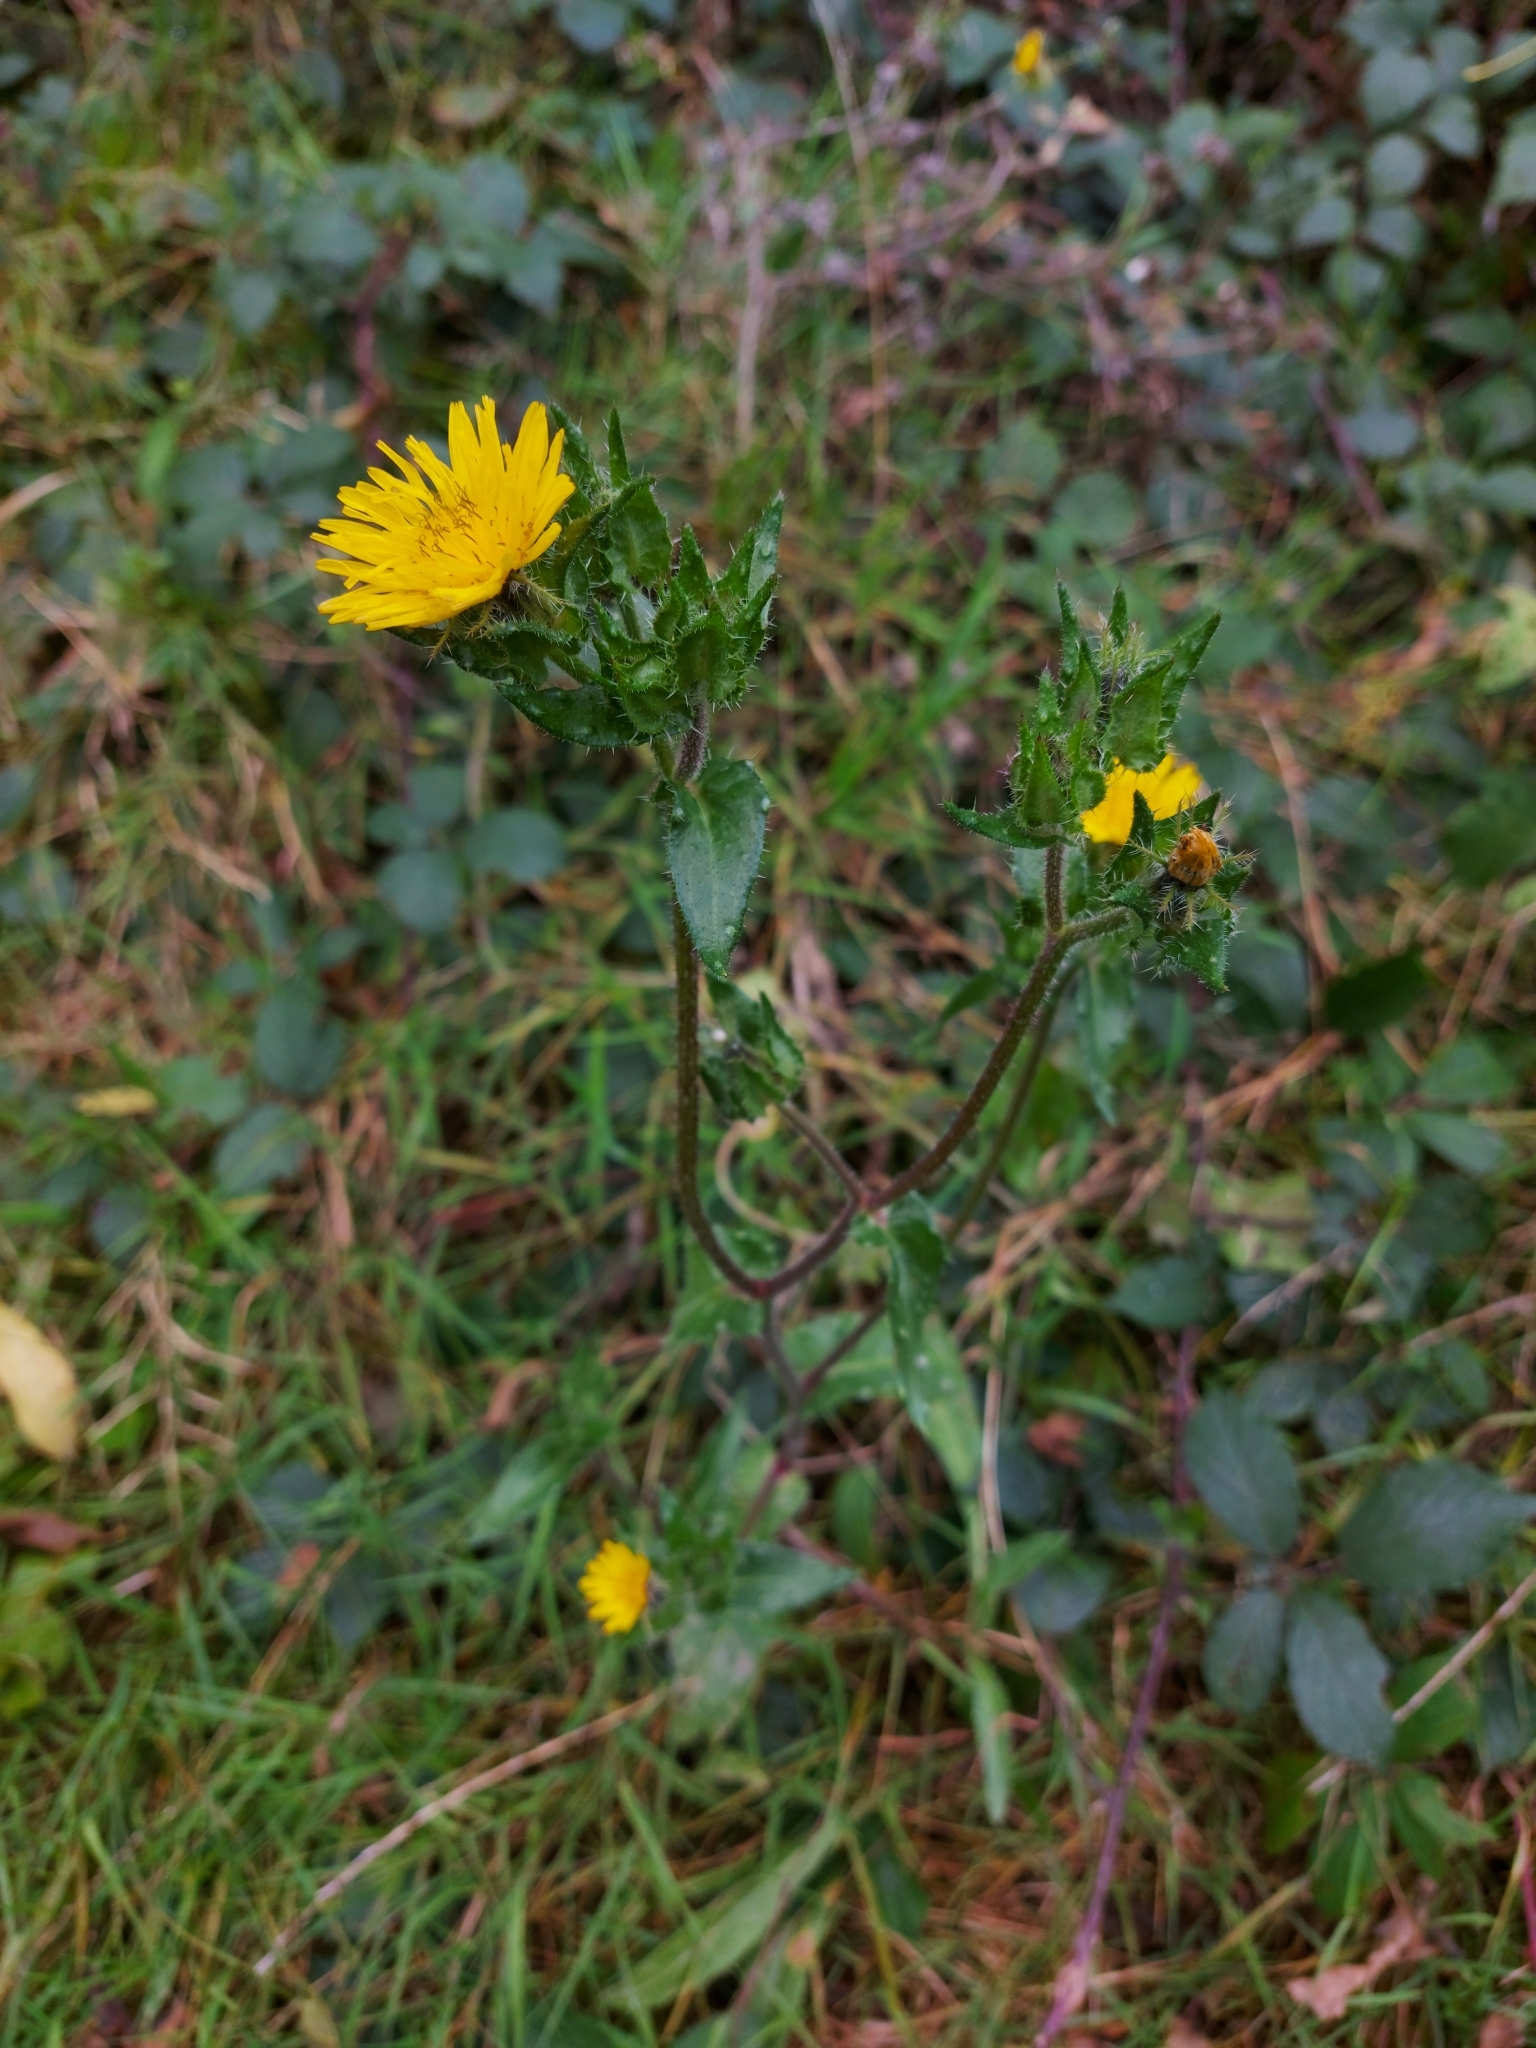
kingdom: Plantae
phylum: Tracheophyta
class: Magnoliopsida
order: Asterales
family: Asteraceae
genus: Helminthotheca
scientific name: Helminthotheca echioides
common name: Ox-tongue
